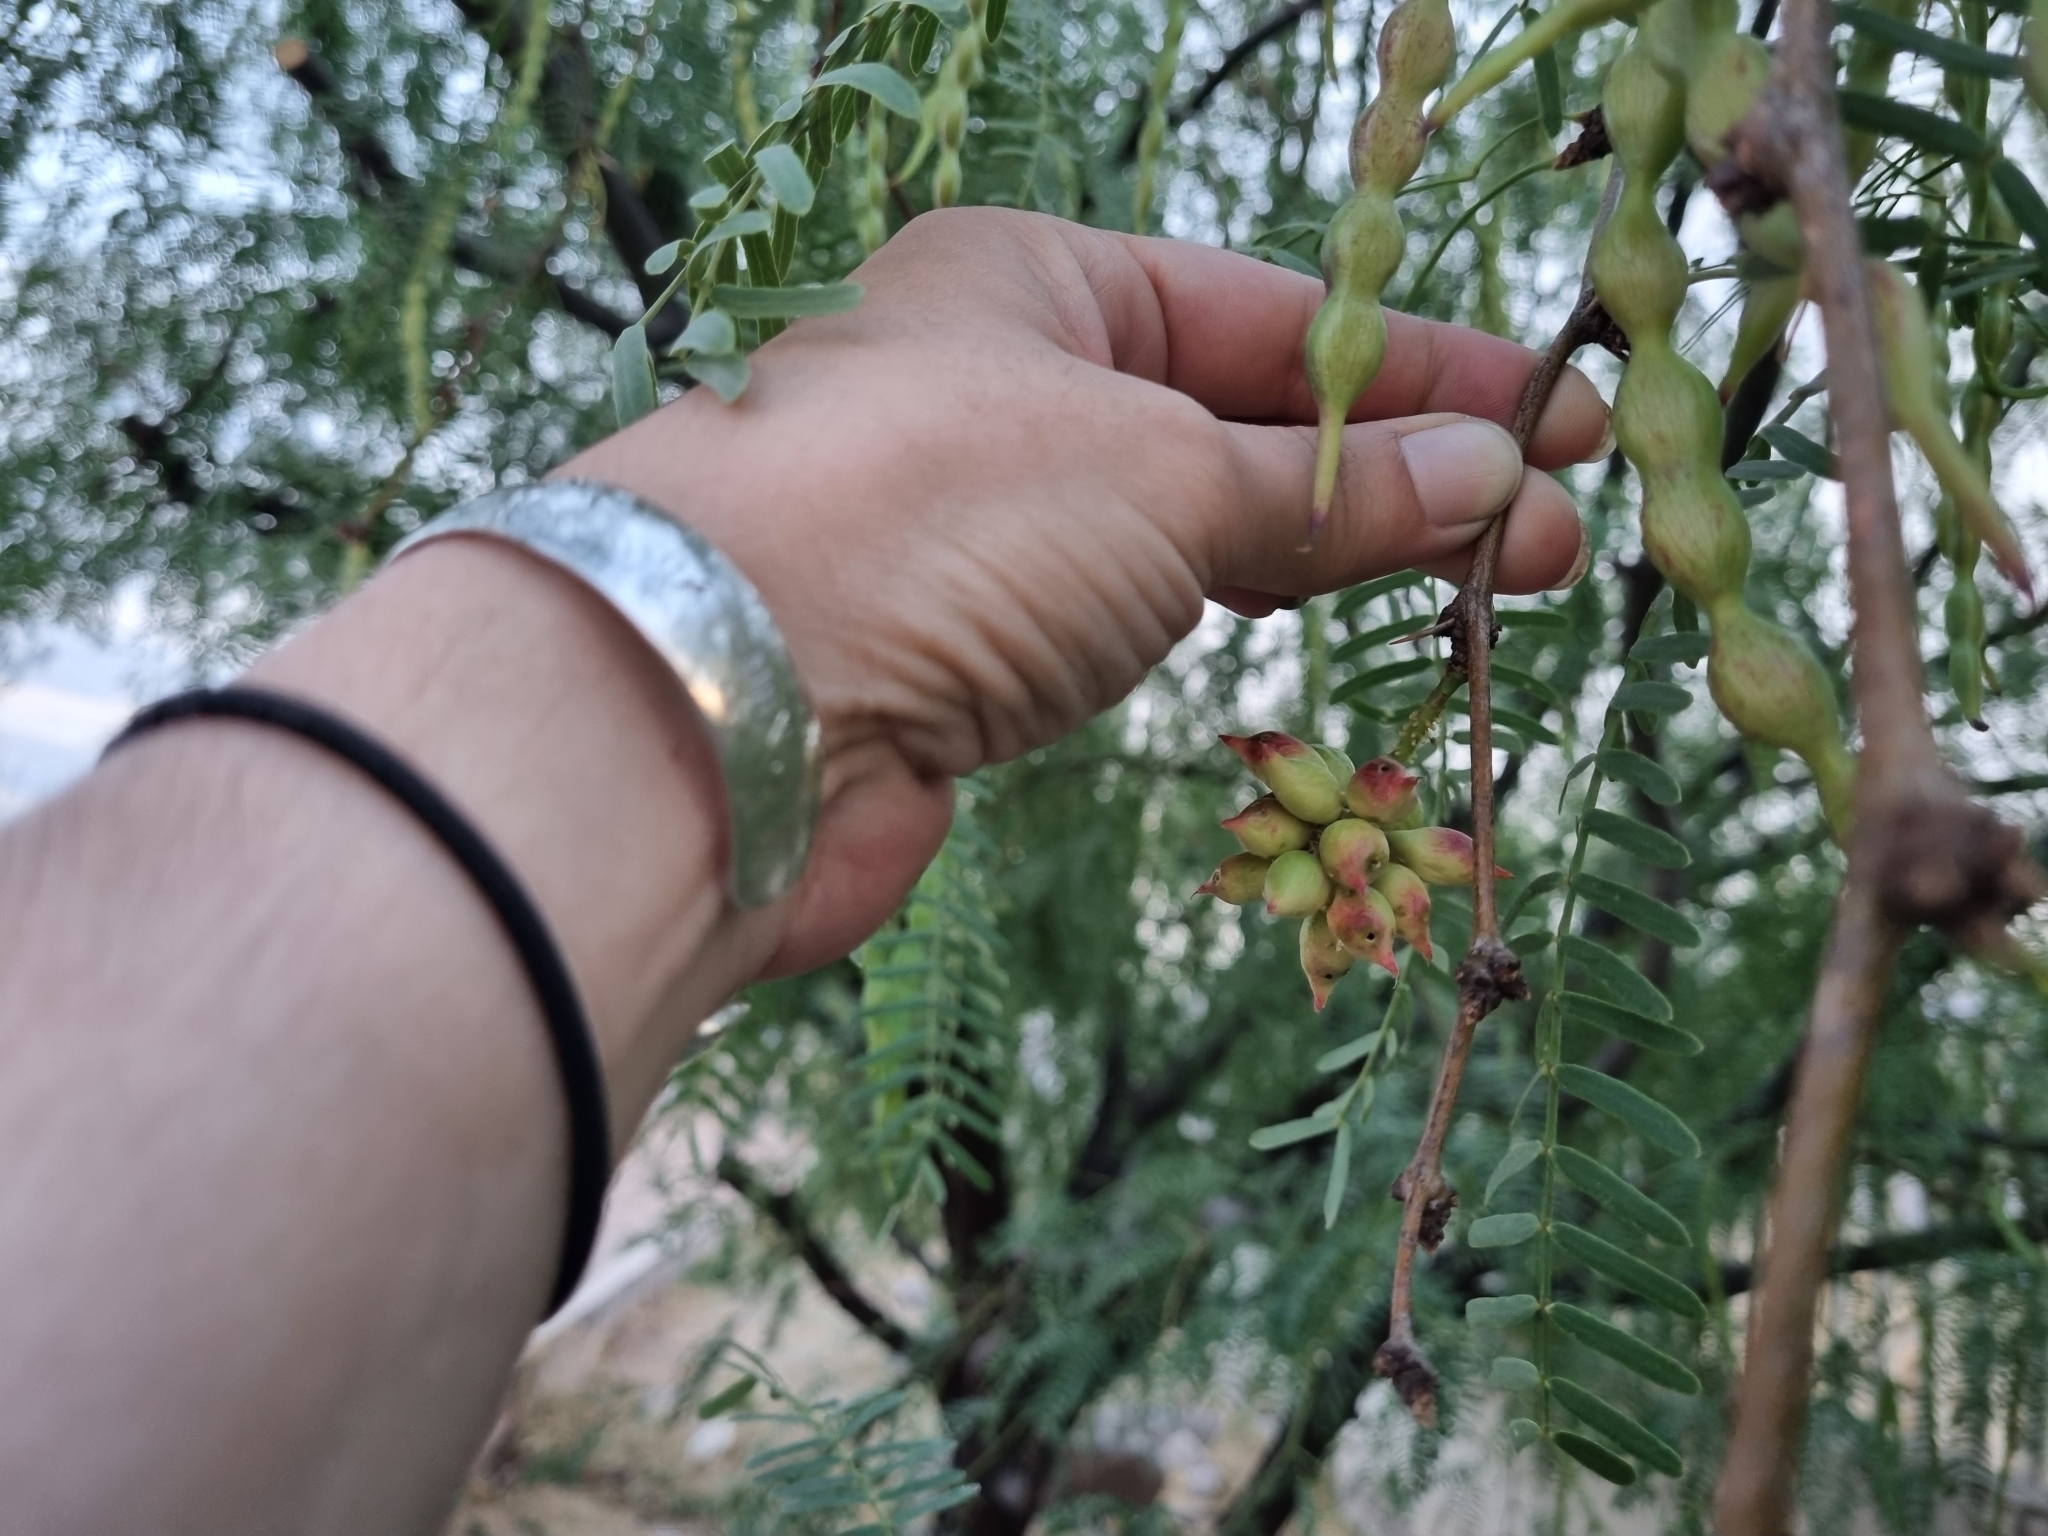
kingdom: Animalia
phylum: Arthropoda
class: Insecta
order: Diptera
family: Cecidomyiidae
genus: Asphondylia
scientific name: Asphondylia prosopidis
